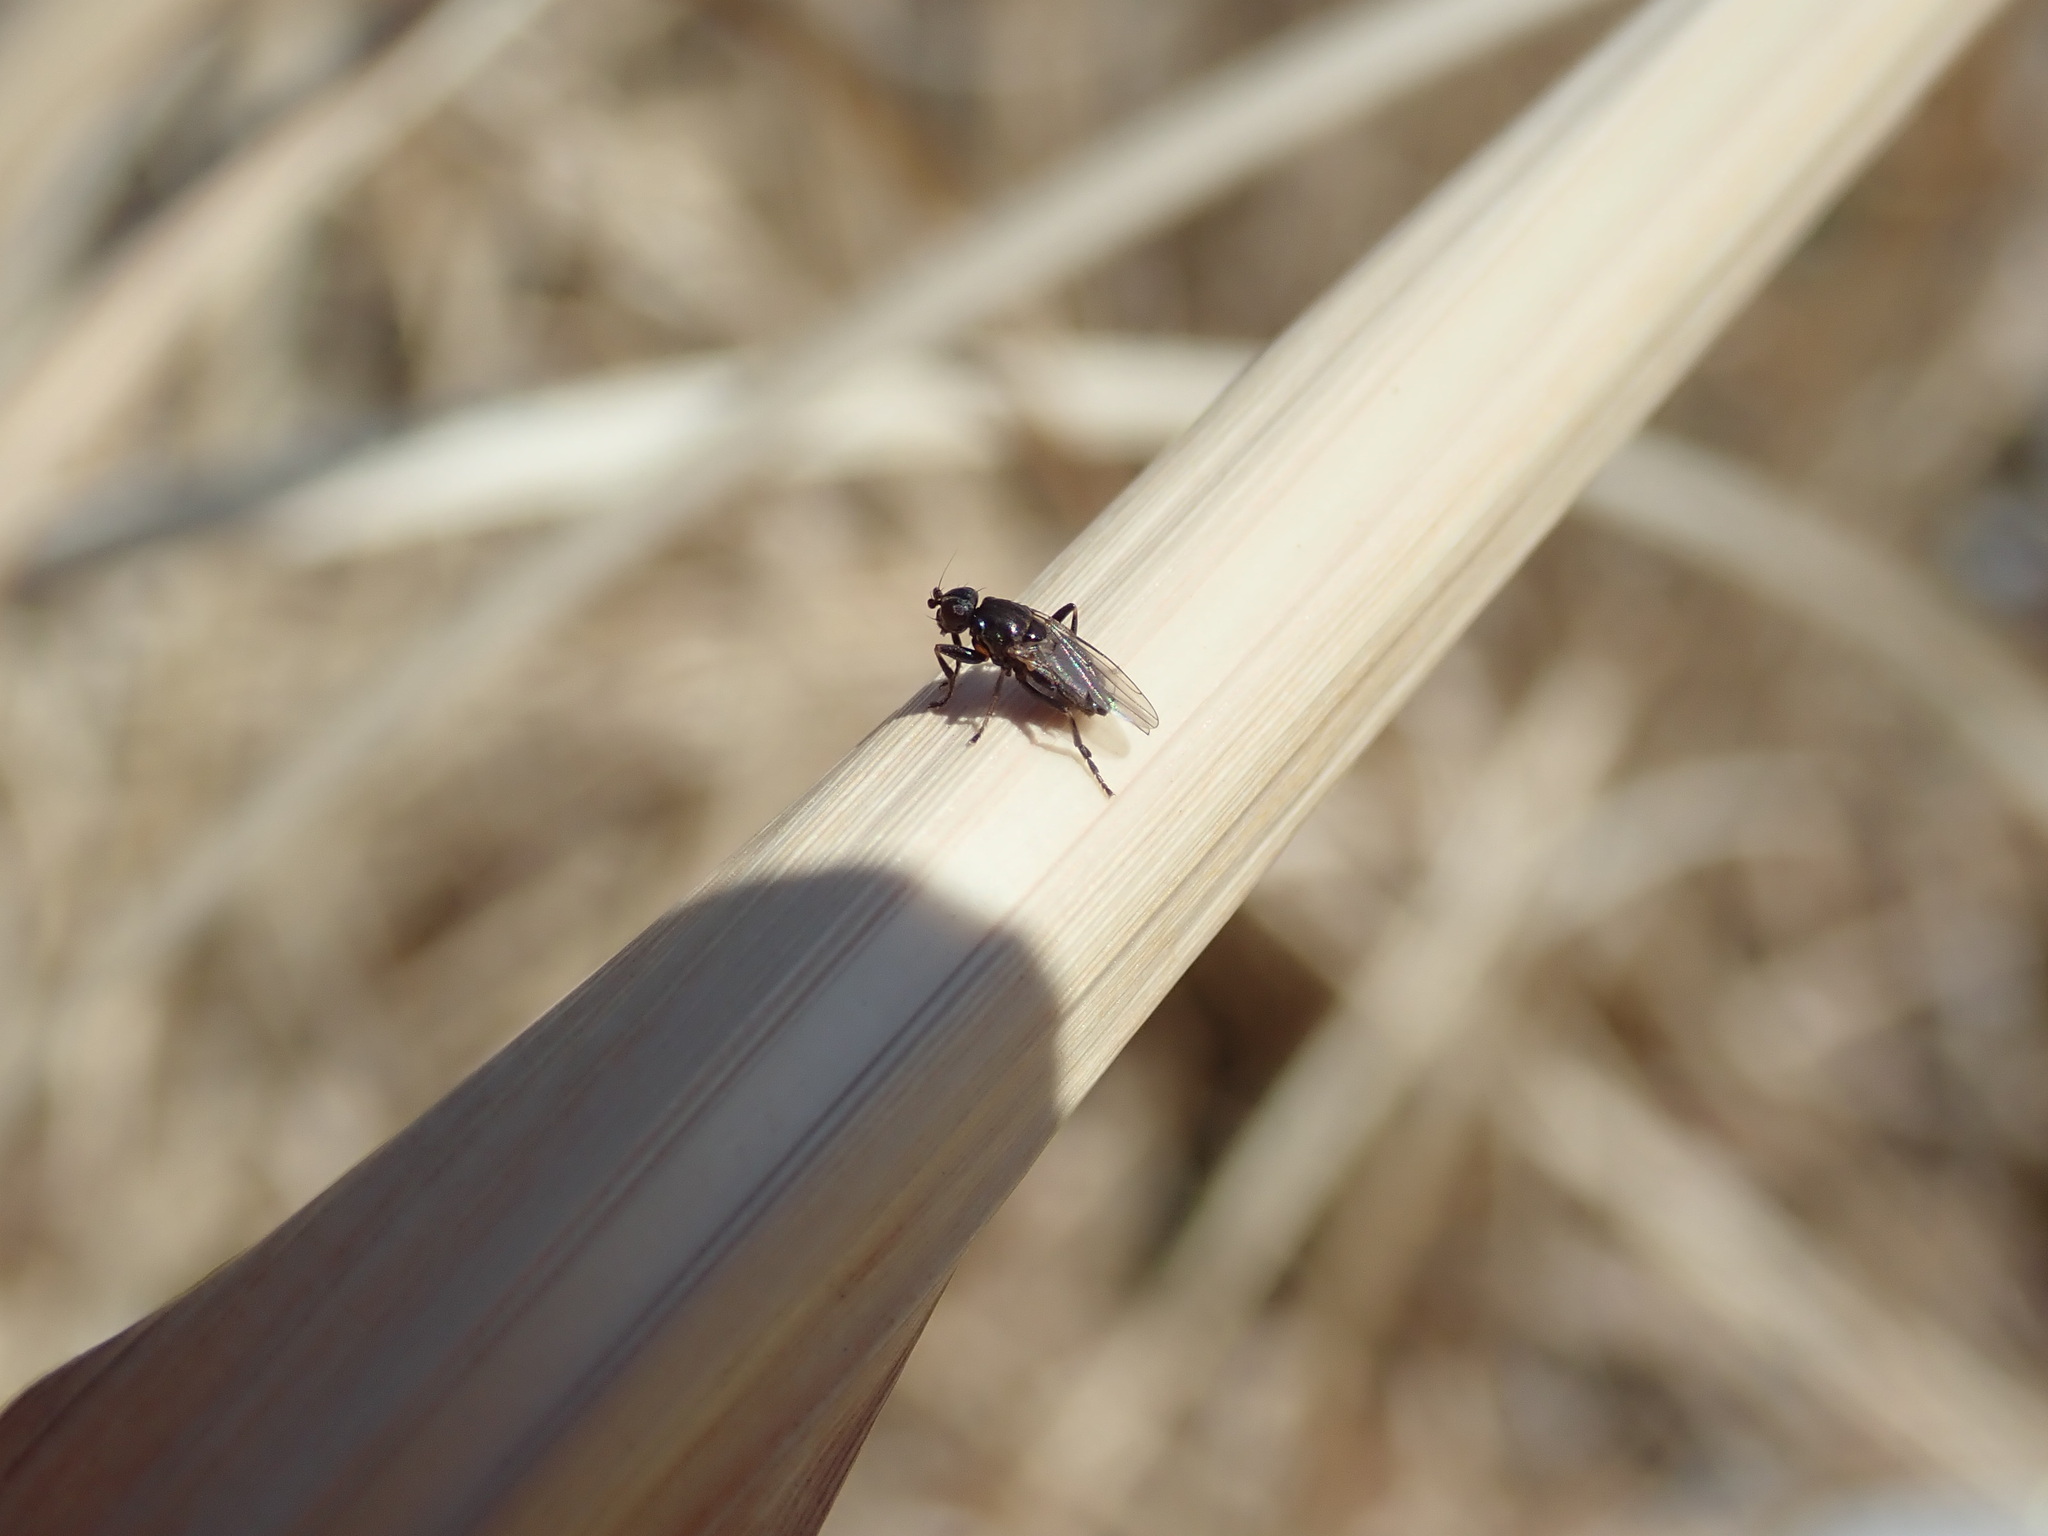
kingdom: Animalia
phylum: Arthropoda
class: Insecta
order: Diptera
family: Sphaeroceridae
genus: Lotophila
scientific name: Lotophila atra
